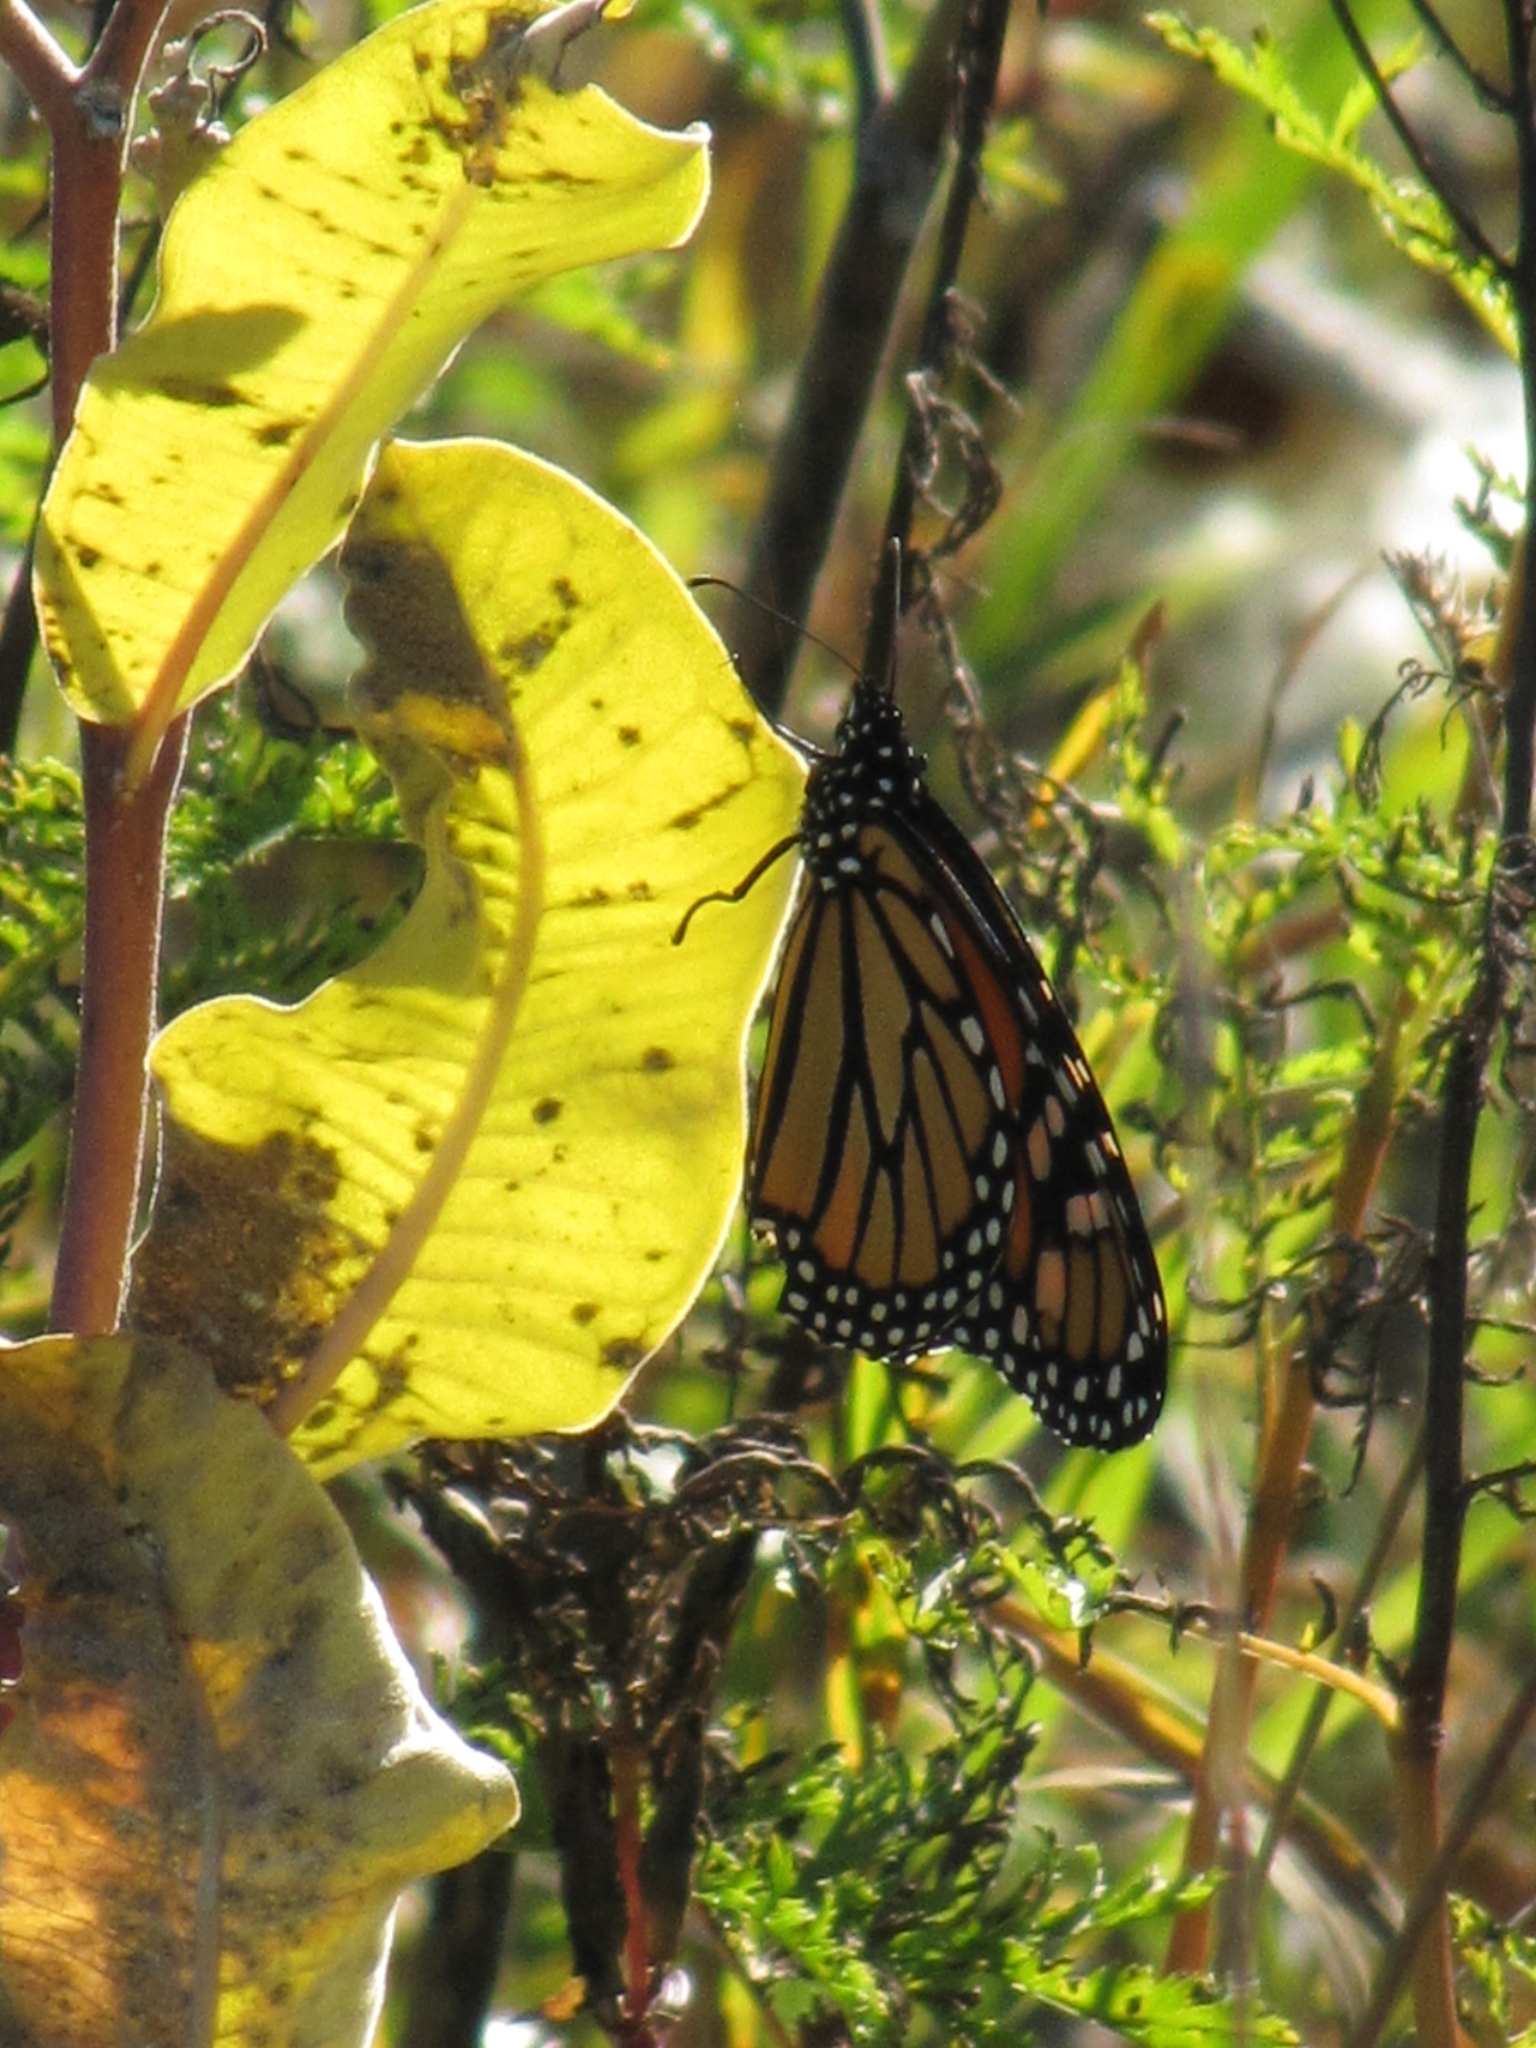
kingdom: Animalia
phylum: Arthropoda
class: Insecta
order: Lepidoptera
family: Nymphalidae
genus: Danaus
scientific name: Danaus plexippus
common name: Monarch
